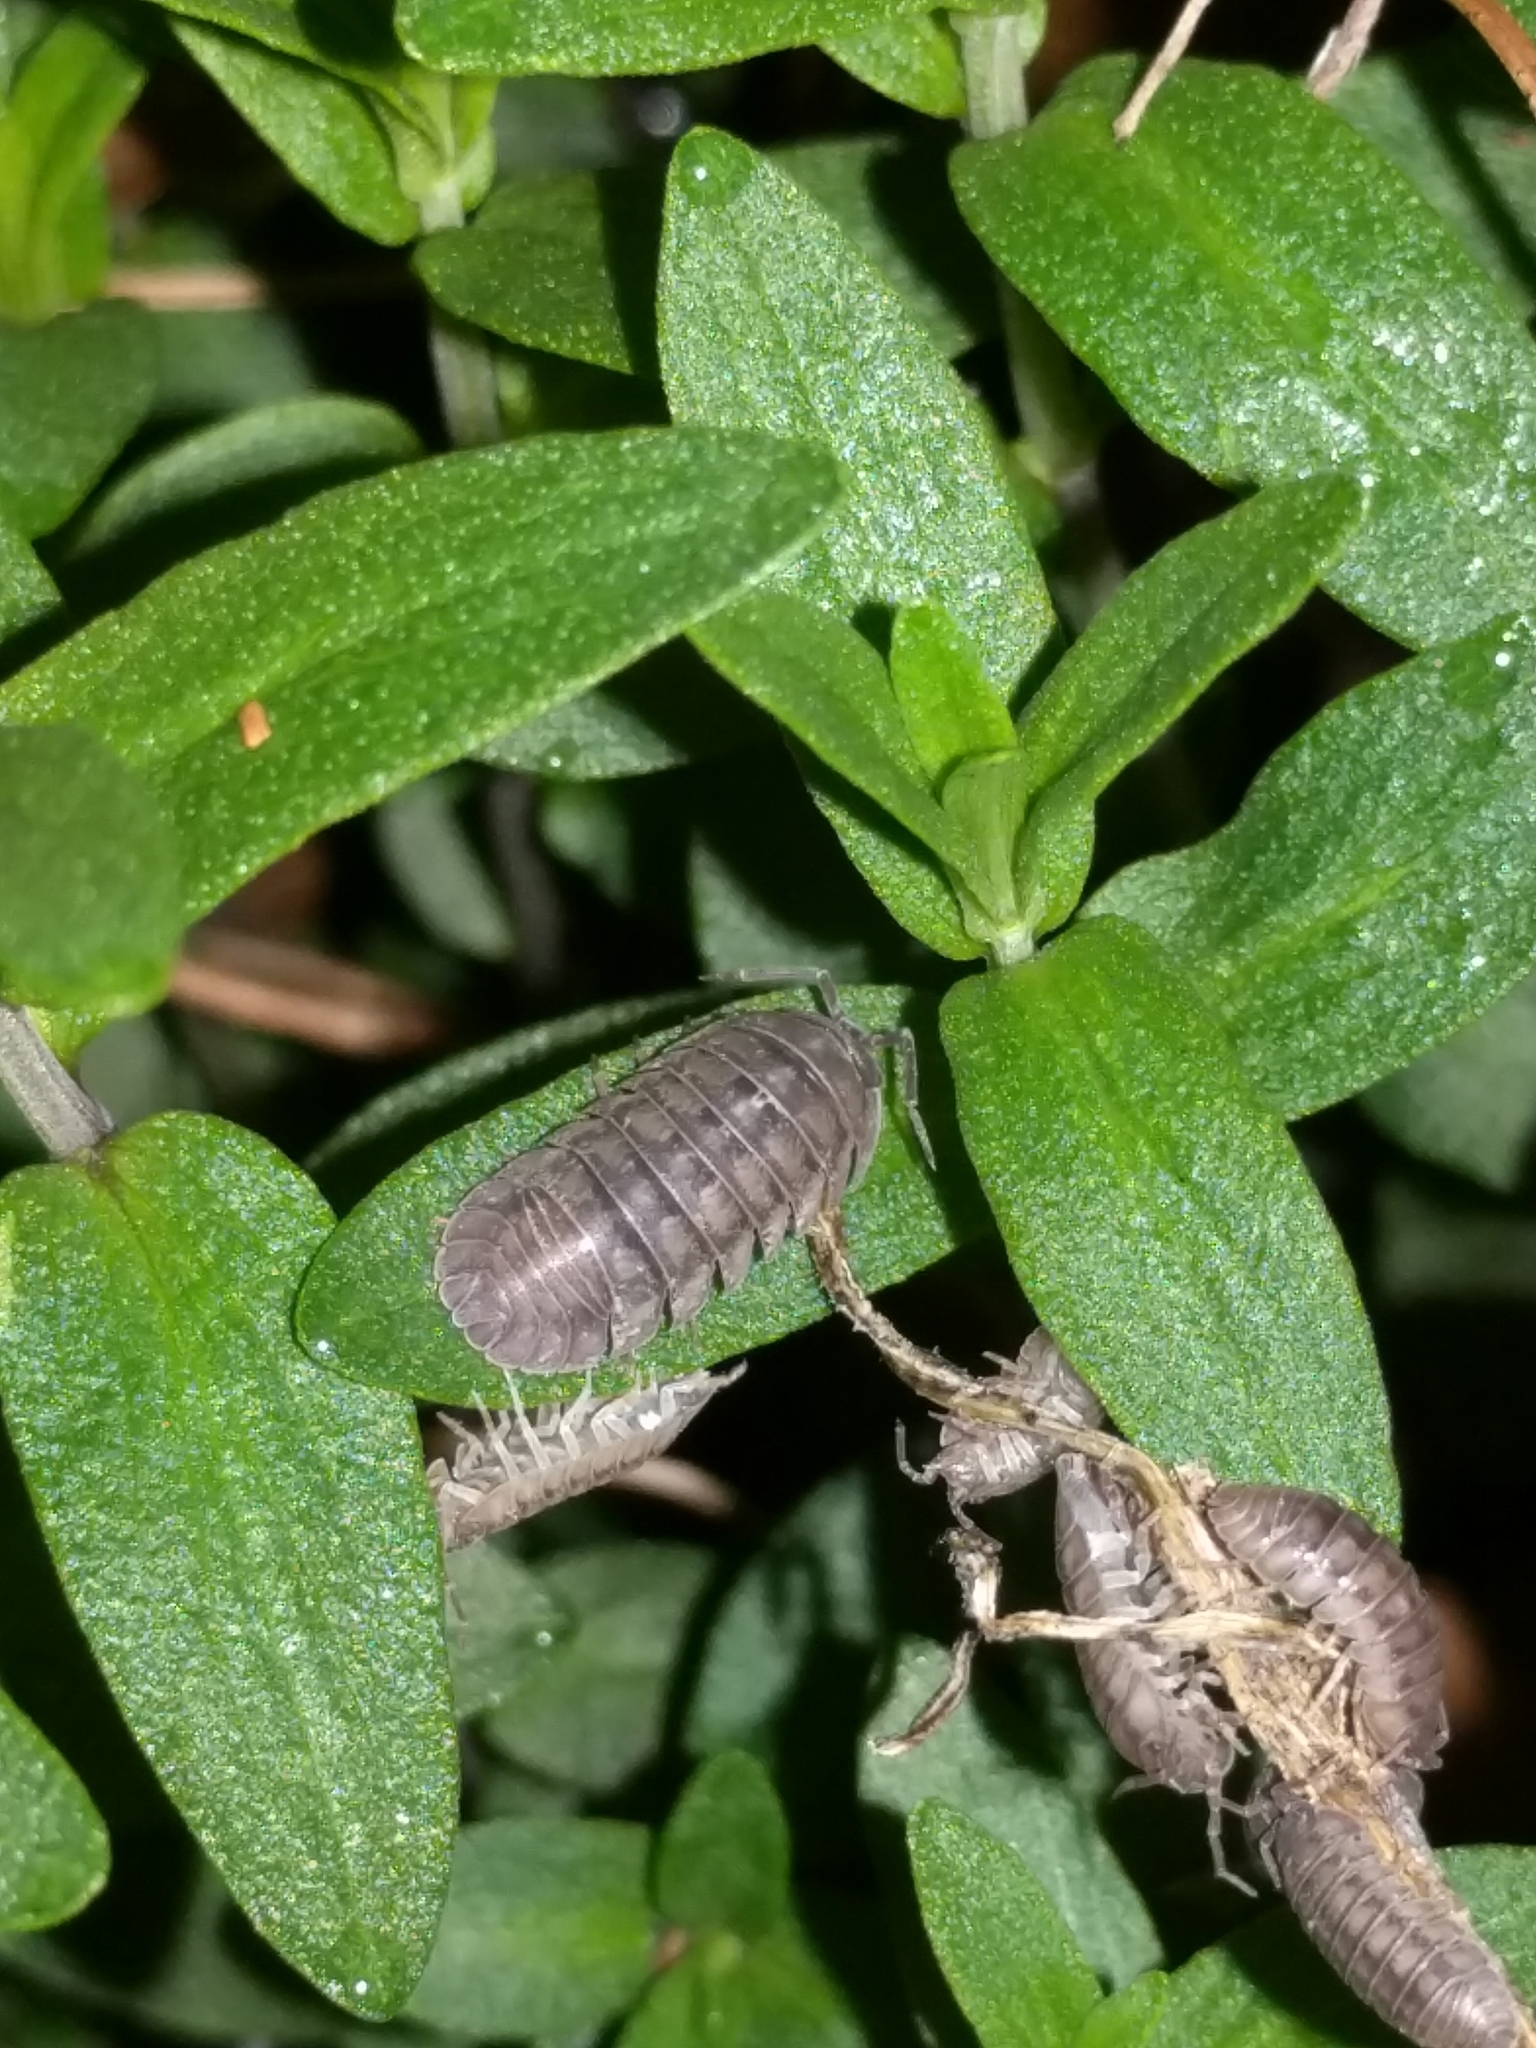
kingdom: Animalia
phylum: Arthropoda
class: Malacostraca
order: Isopoda
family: Armadillidiidae
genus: Armadillidium
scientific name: Armadillidium nasatum
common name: Isopod
